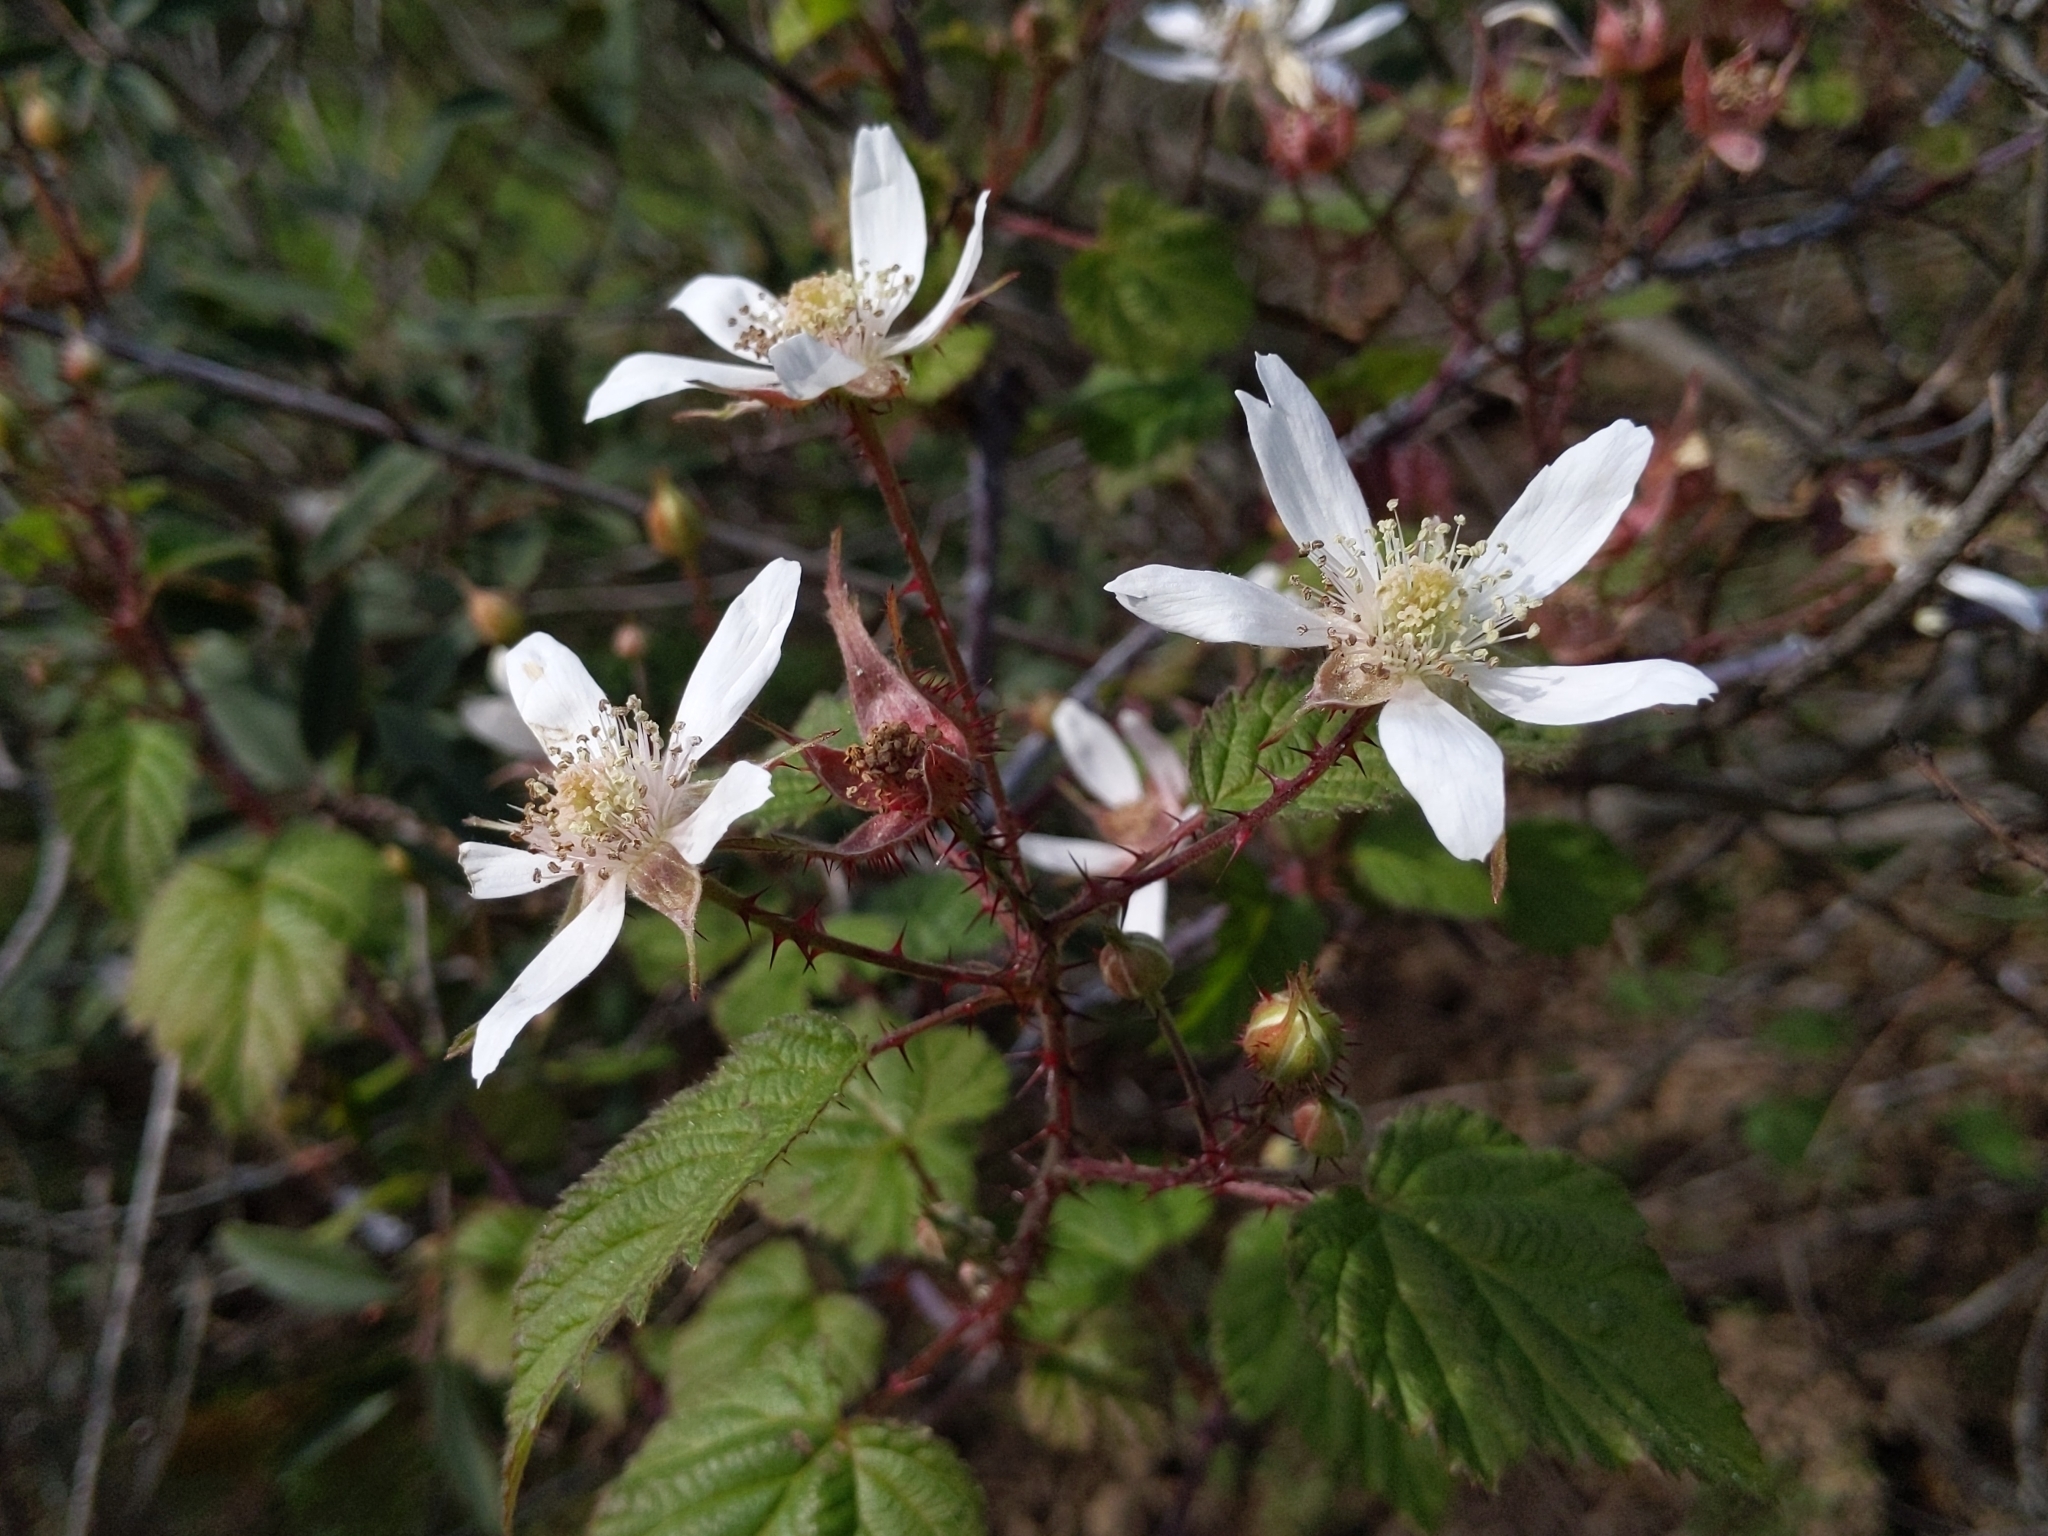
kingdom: Plantae
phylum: Tracheophyta
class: Magnoliopsida
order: Rosales
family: Rosaceae
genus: Rubus
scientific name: Rubus ursinus
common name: Pacific blackberry
